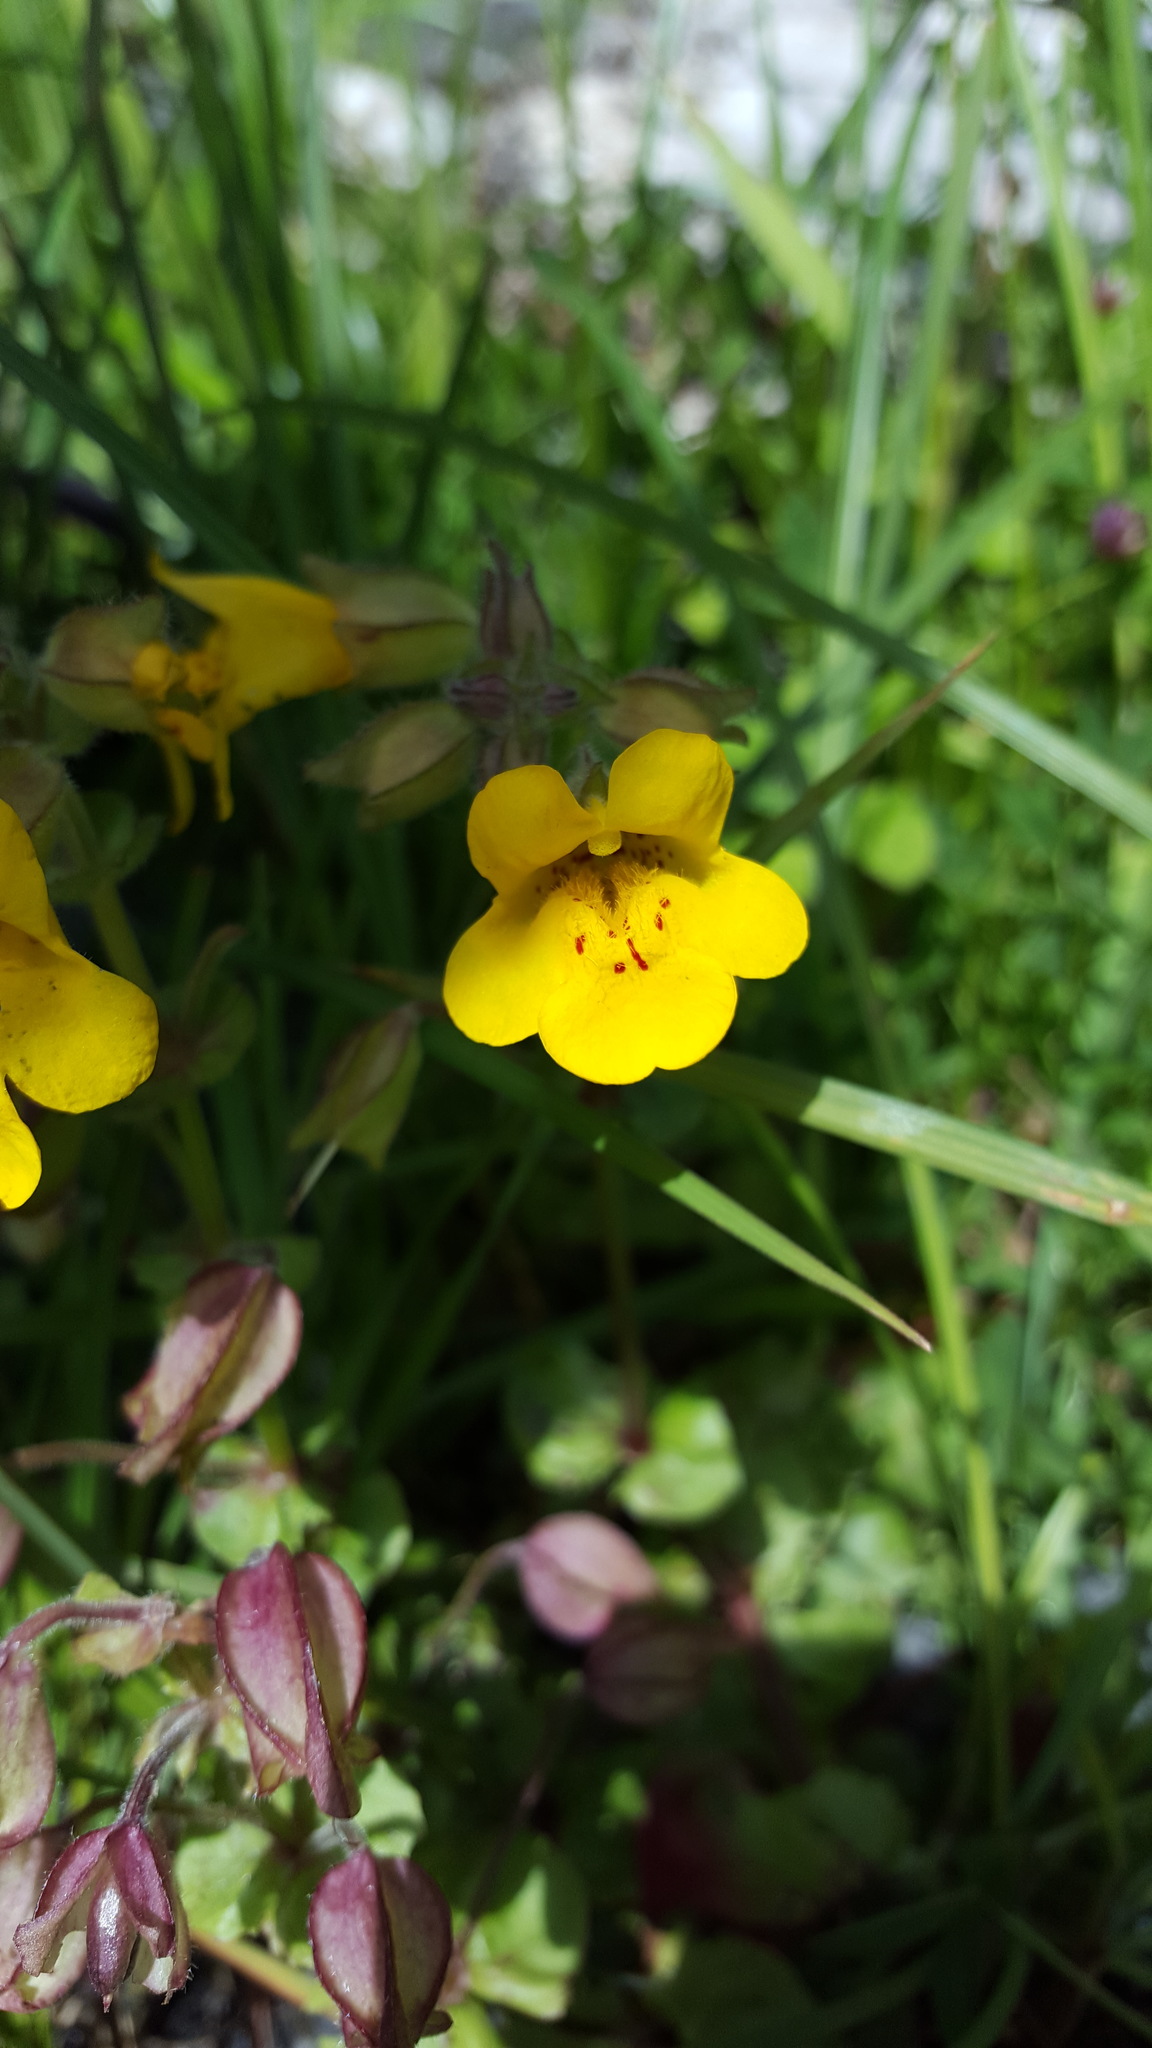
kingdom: Plantae
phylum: Tracheophyta
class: Magnoliopsida
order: Lamiales
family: Phrymaceae
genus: Erythranthe
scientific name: Erythranthe guttata
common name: Monkeyflower
